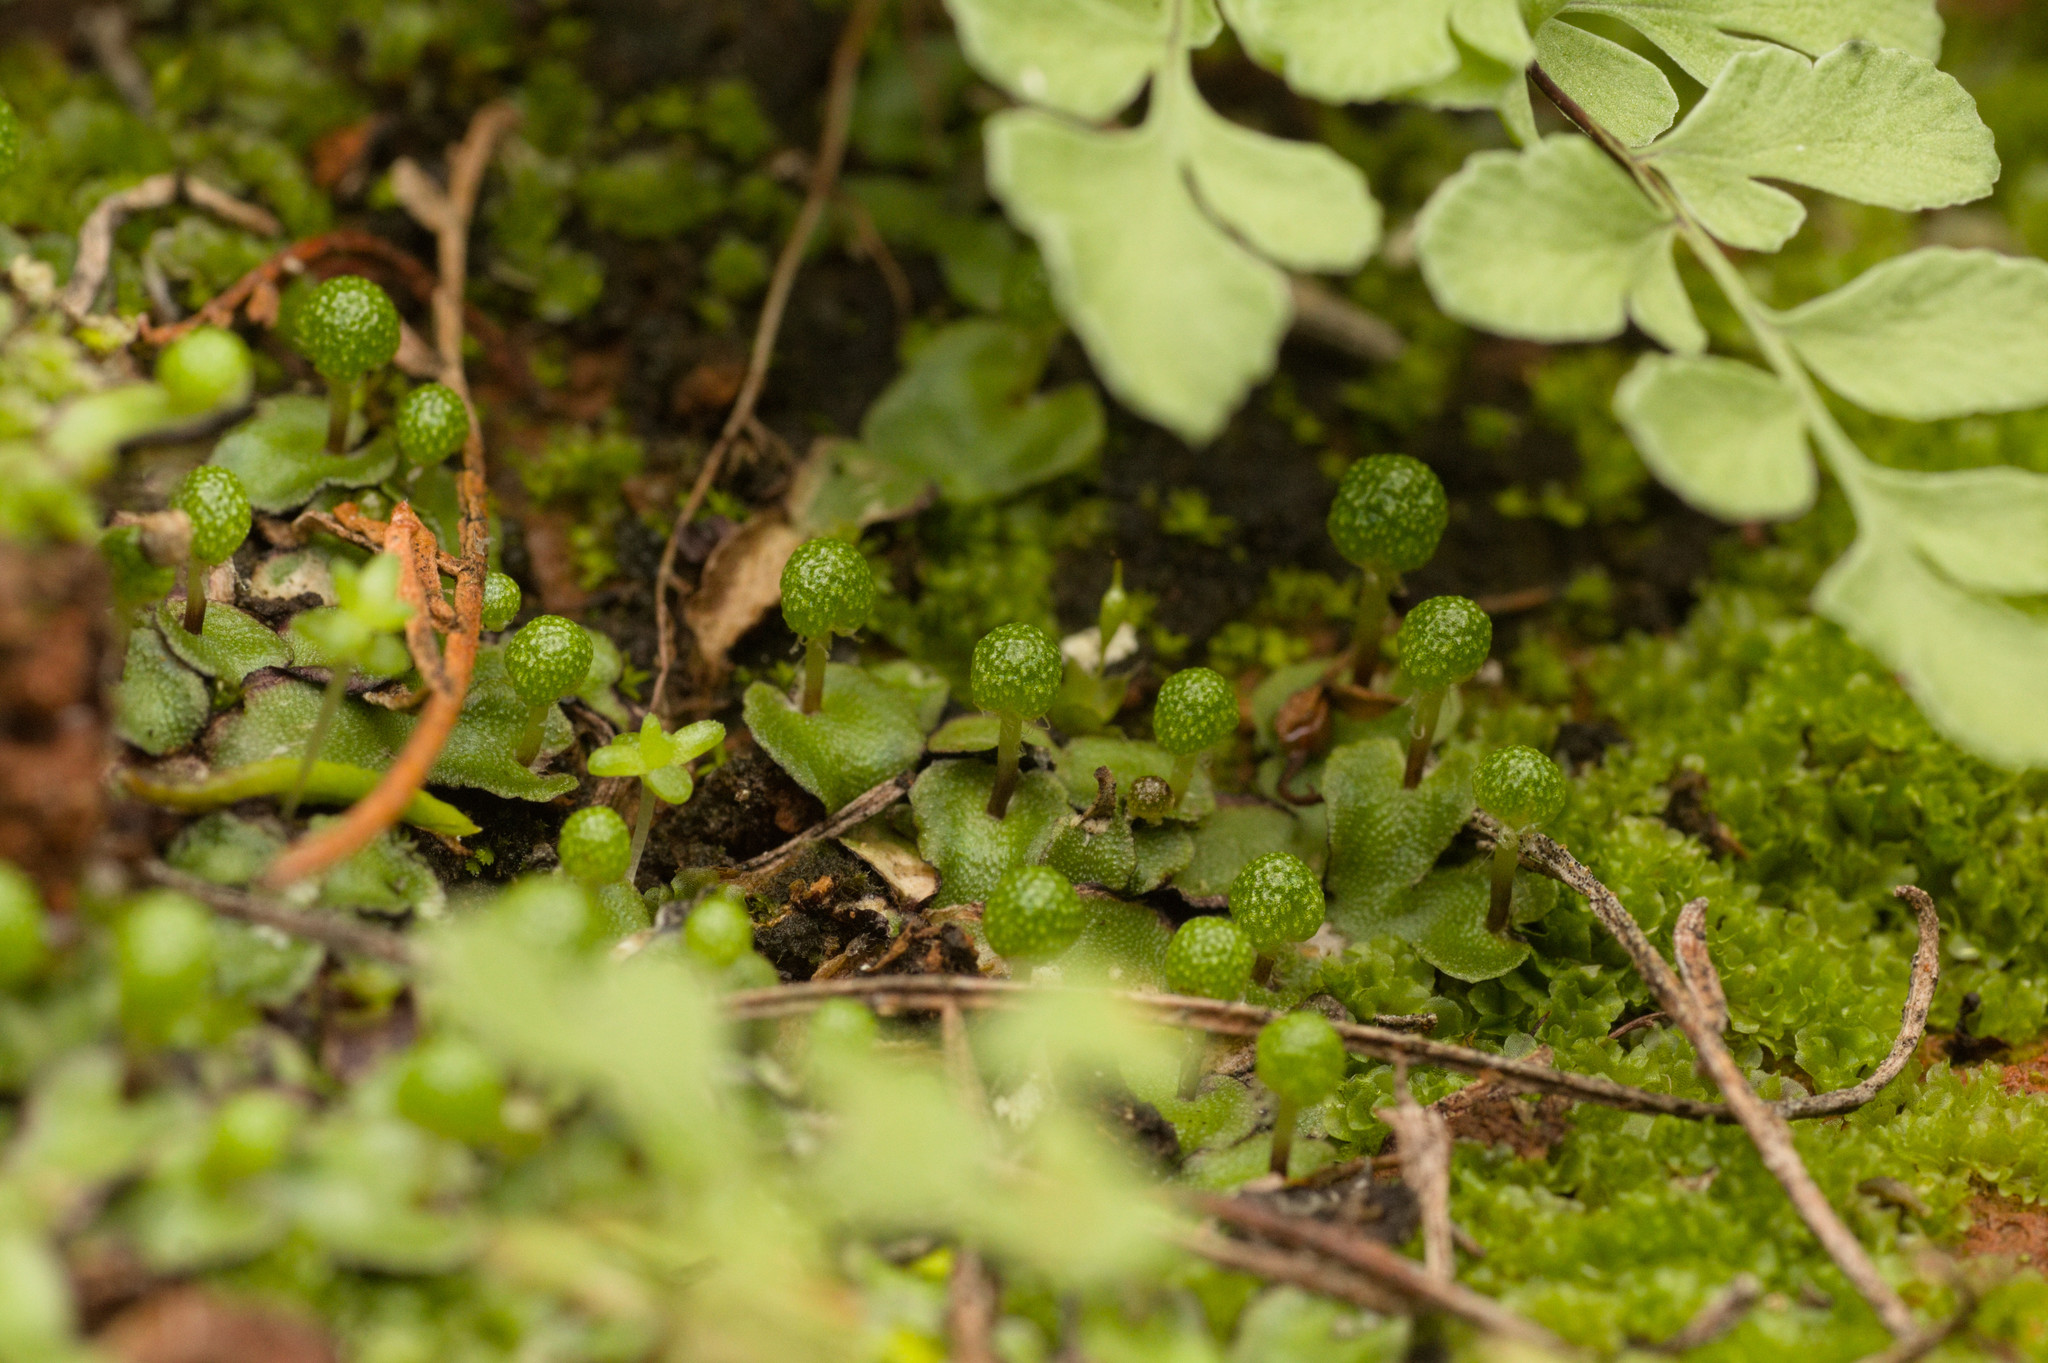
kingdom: Plantae
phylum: Marchantiophyta
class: Marchantiopsida
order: Marchantiales
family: Aytoniaceae
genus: Asterella
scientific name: Asterella drummondii
